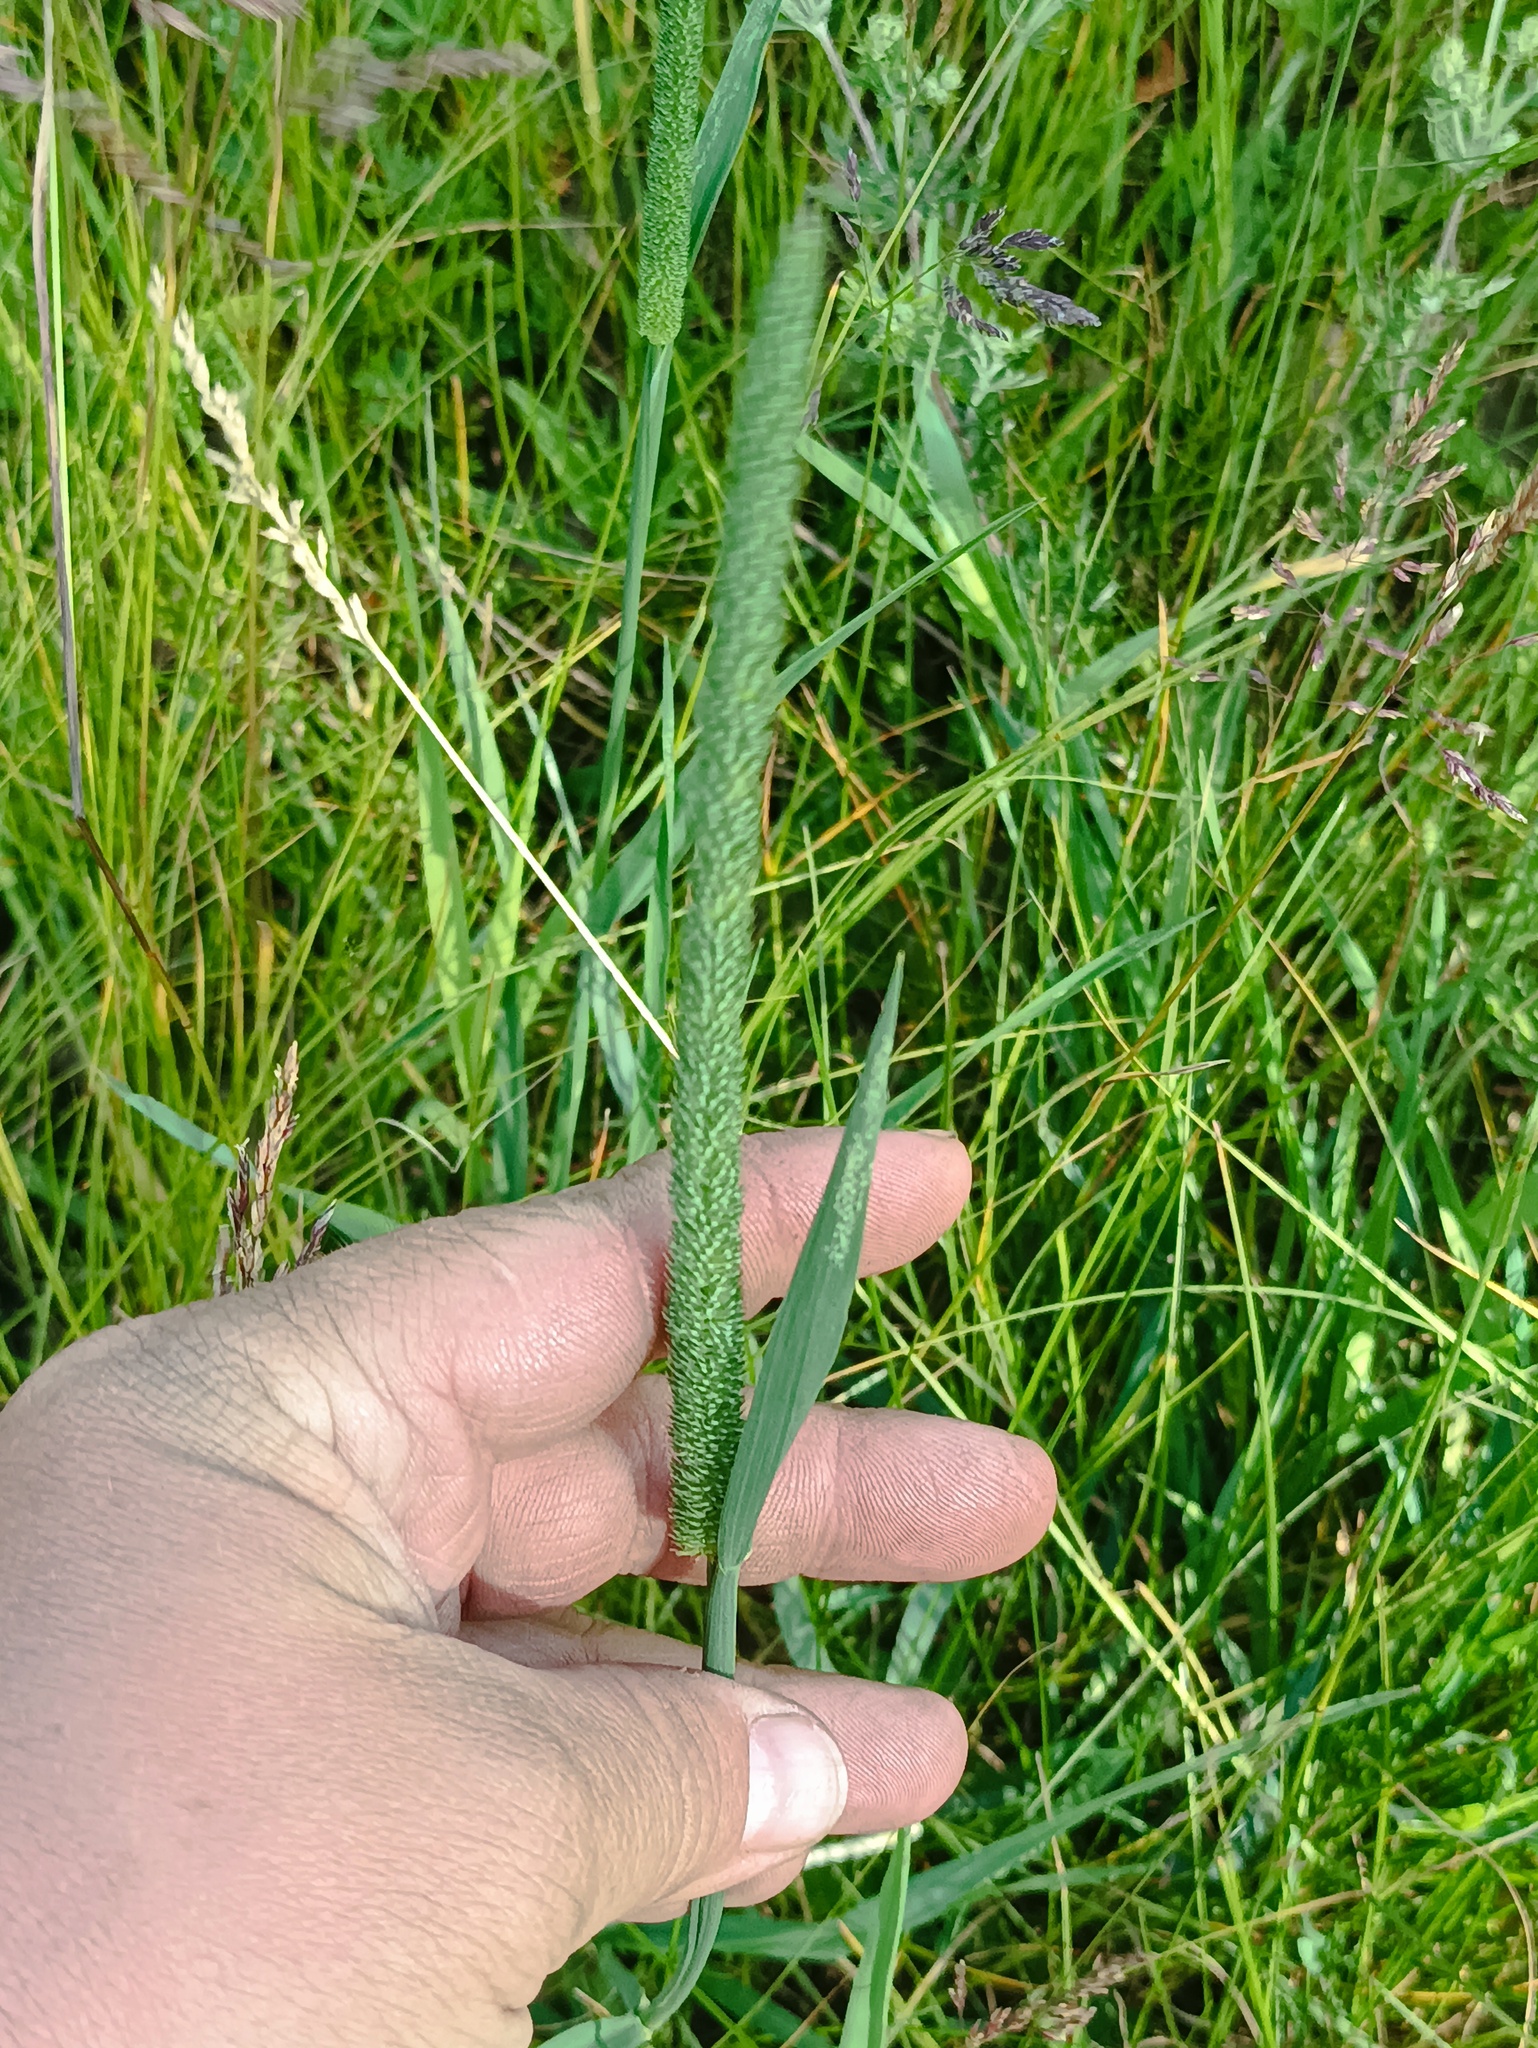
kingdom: Plantae
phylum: Tracheophyta
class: Liliopsida
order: Poales
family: Poaceae
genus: Phleum
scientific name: Phleum pratense
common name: Timothy grass
